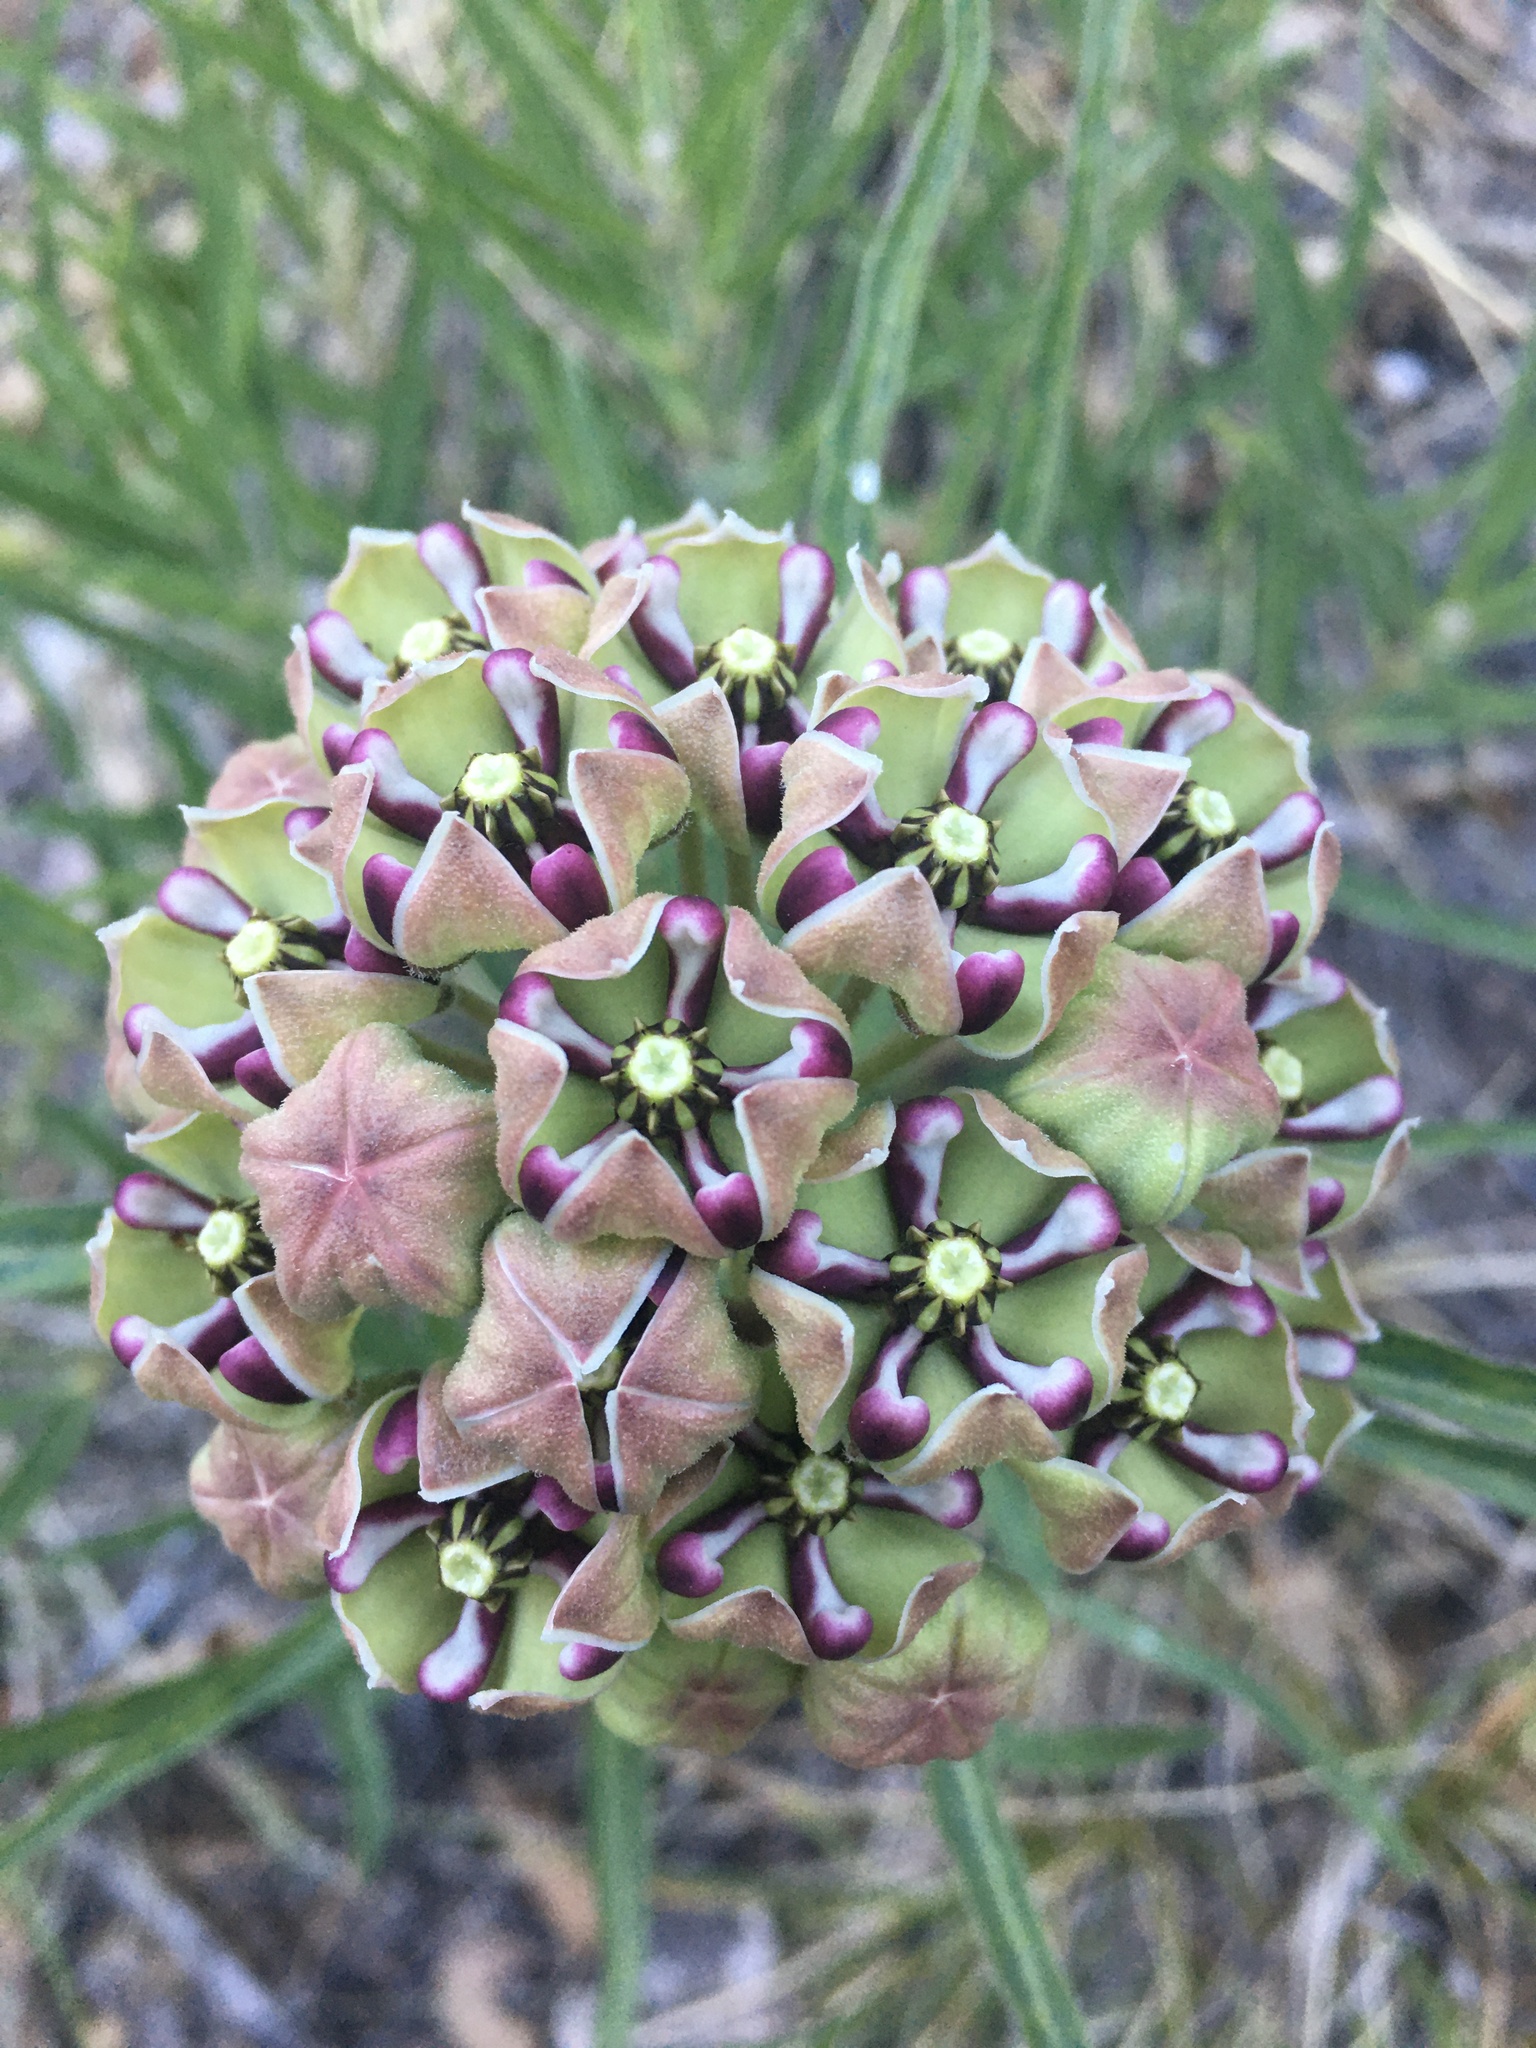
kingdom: Plantae
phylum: Tracheophyta
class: Magnoliopsida
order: Gentianales
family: Apocynaceae
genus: Asclepias
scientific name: Asclepias asperula
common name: Antelope horns
